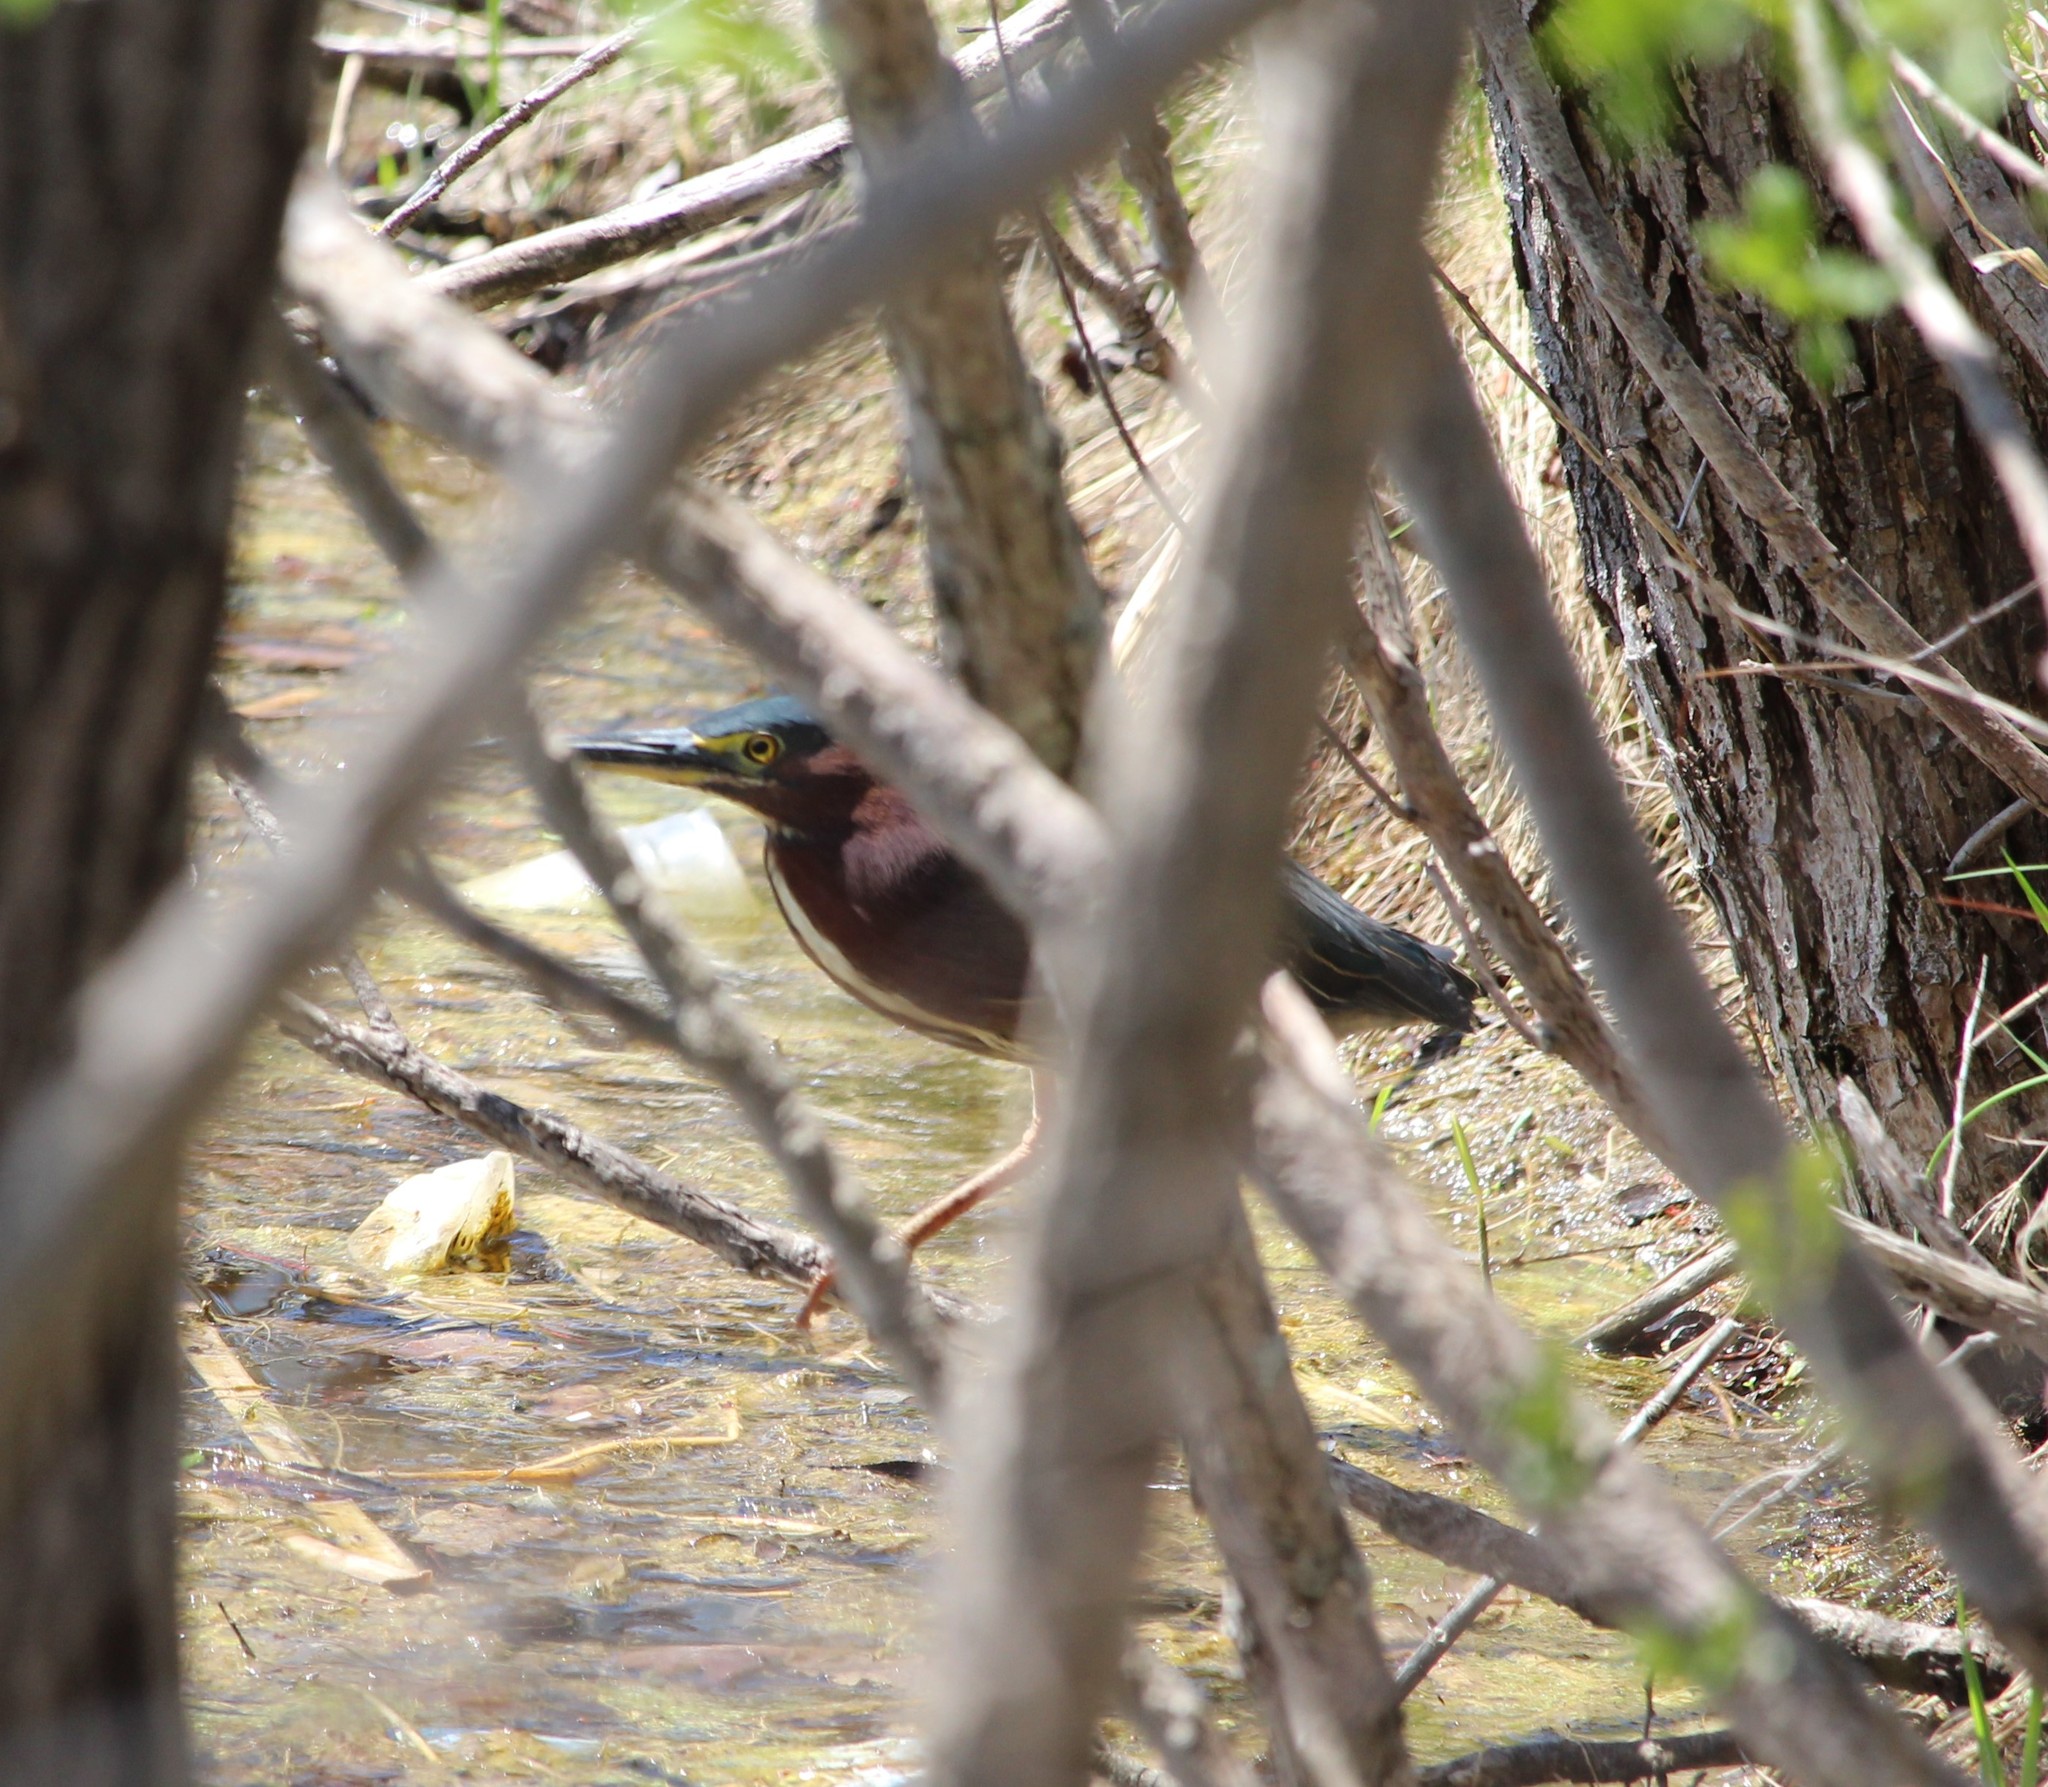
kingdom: Animalia
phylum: Chordata
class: Aves
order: Pelecaniformes
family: Ardeidae
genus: Butorides
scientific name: Butorides virescens
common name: Green heron
